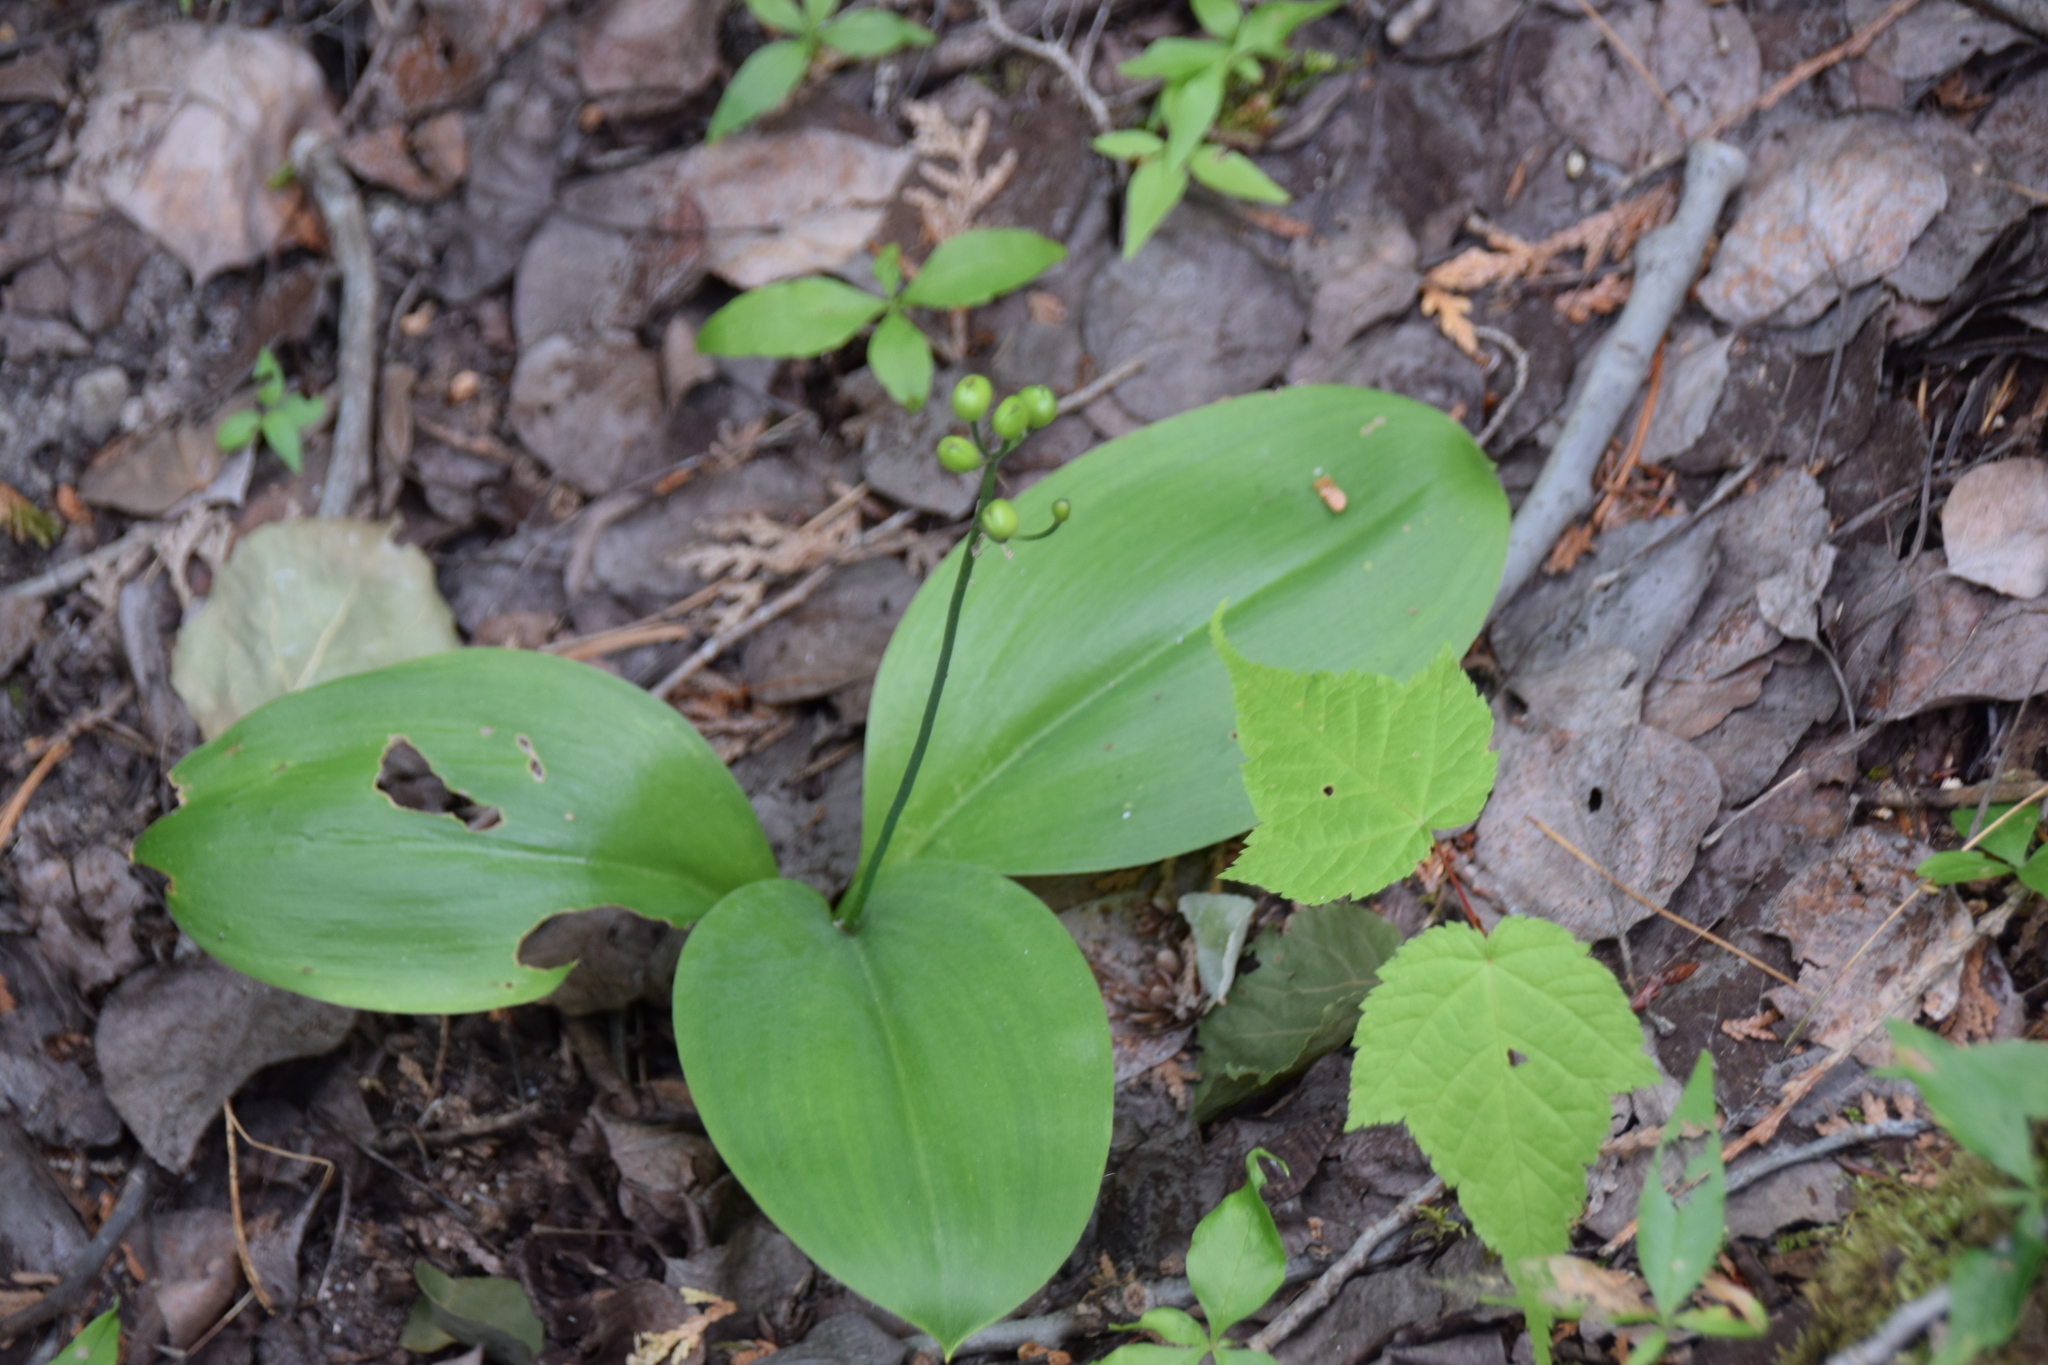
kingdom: Plantae
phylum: Tracheophyta
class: Liliopsida
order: Liliales
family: Liliaceae
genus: Clintonia
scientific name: Clintonia borealis
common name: Yellow clintonia
